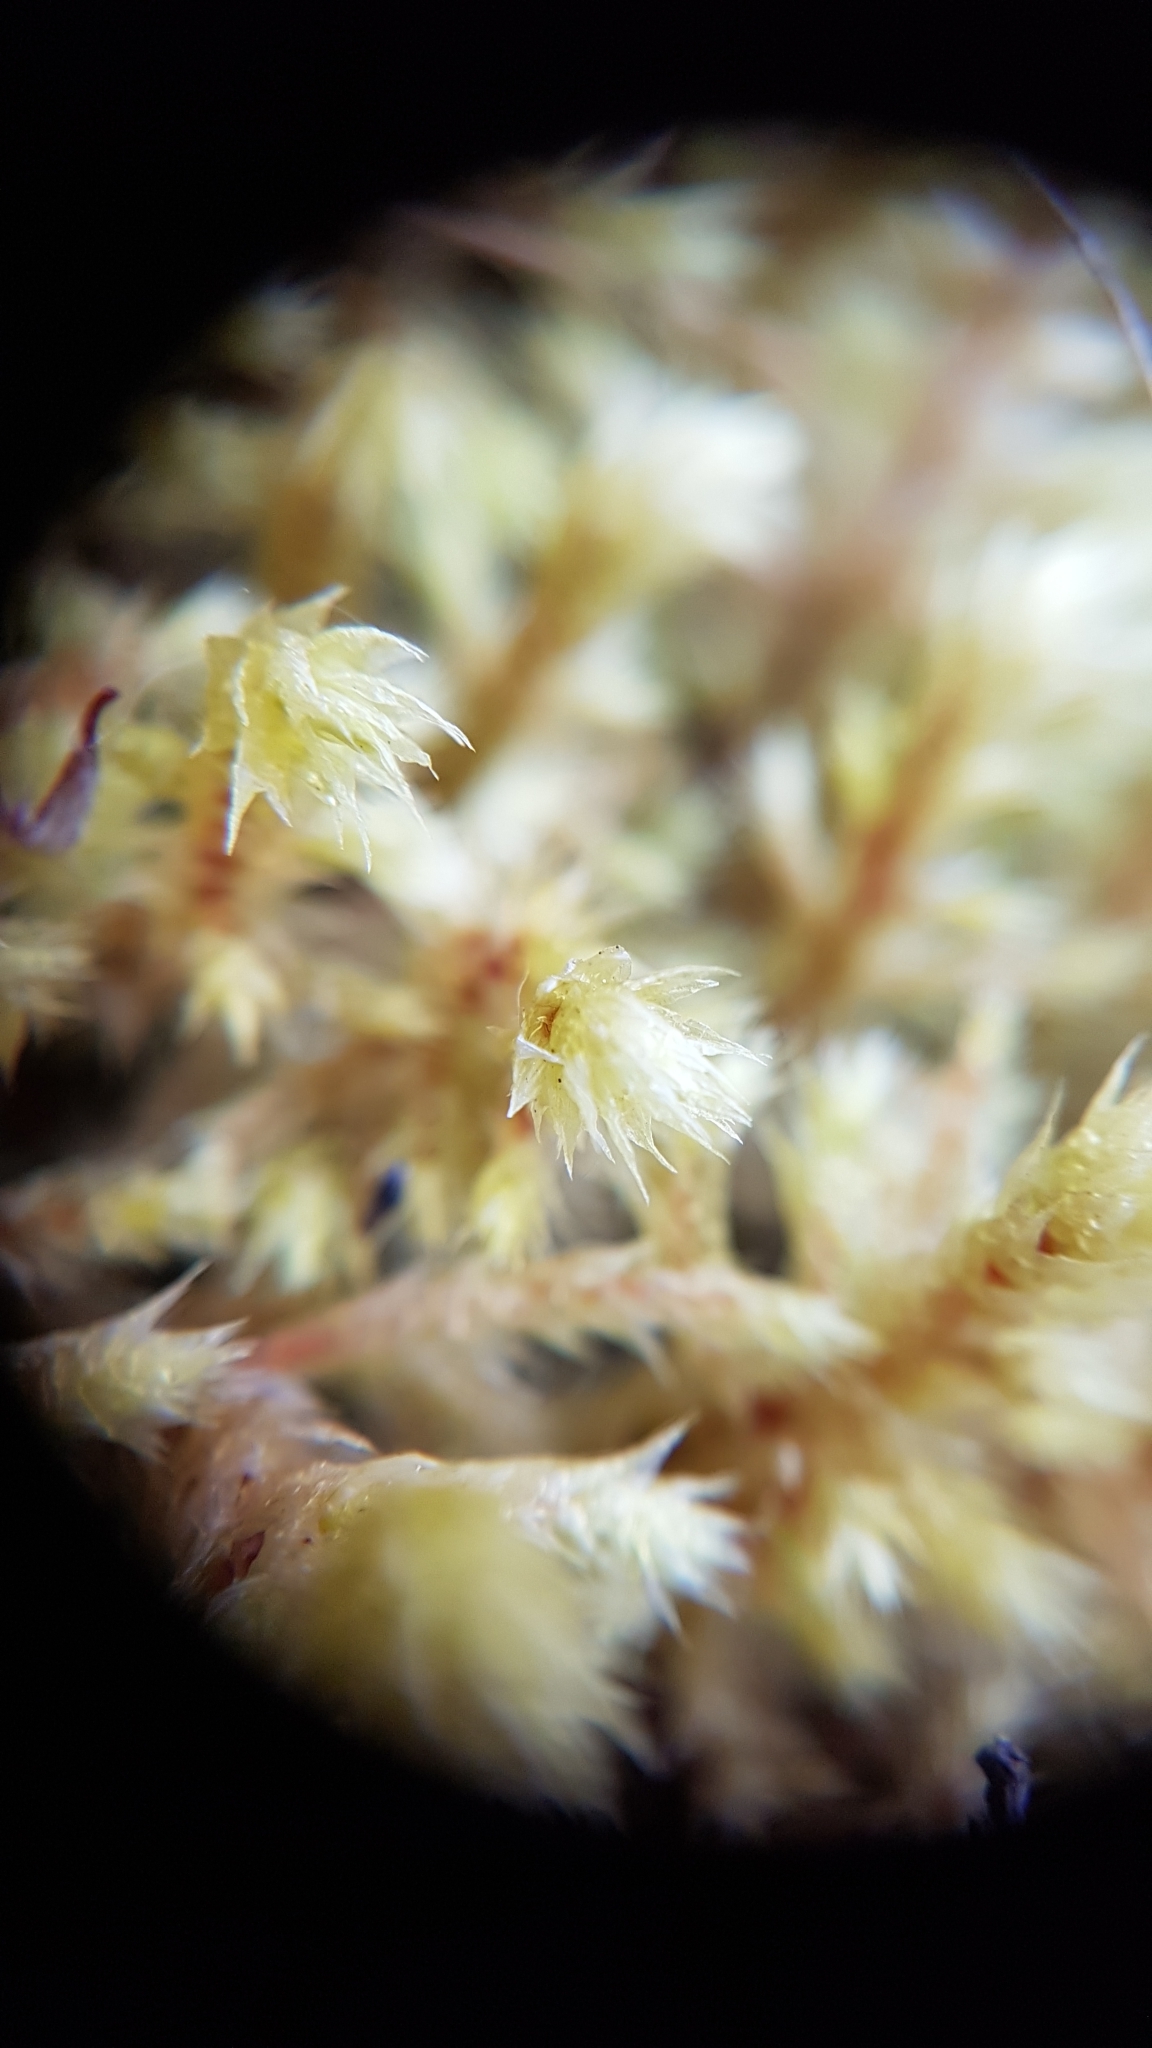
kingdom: Plantae
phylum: Bryophyta
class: Bryopsida
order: Hypnales
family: Hylocomiaceae
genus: Hylocomiadelphus
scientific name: Hylocomiadelphus triquetrus
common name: Rough goose neck moss
